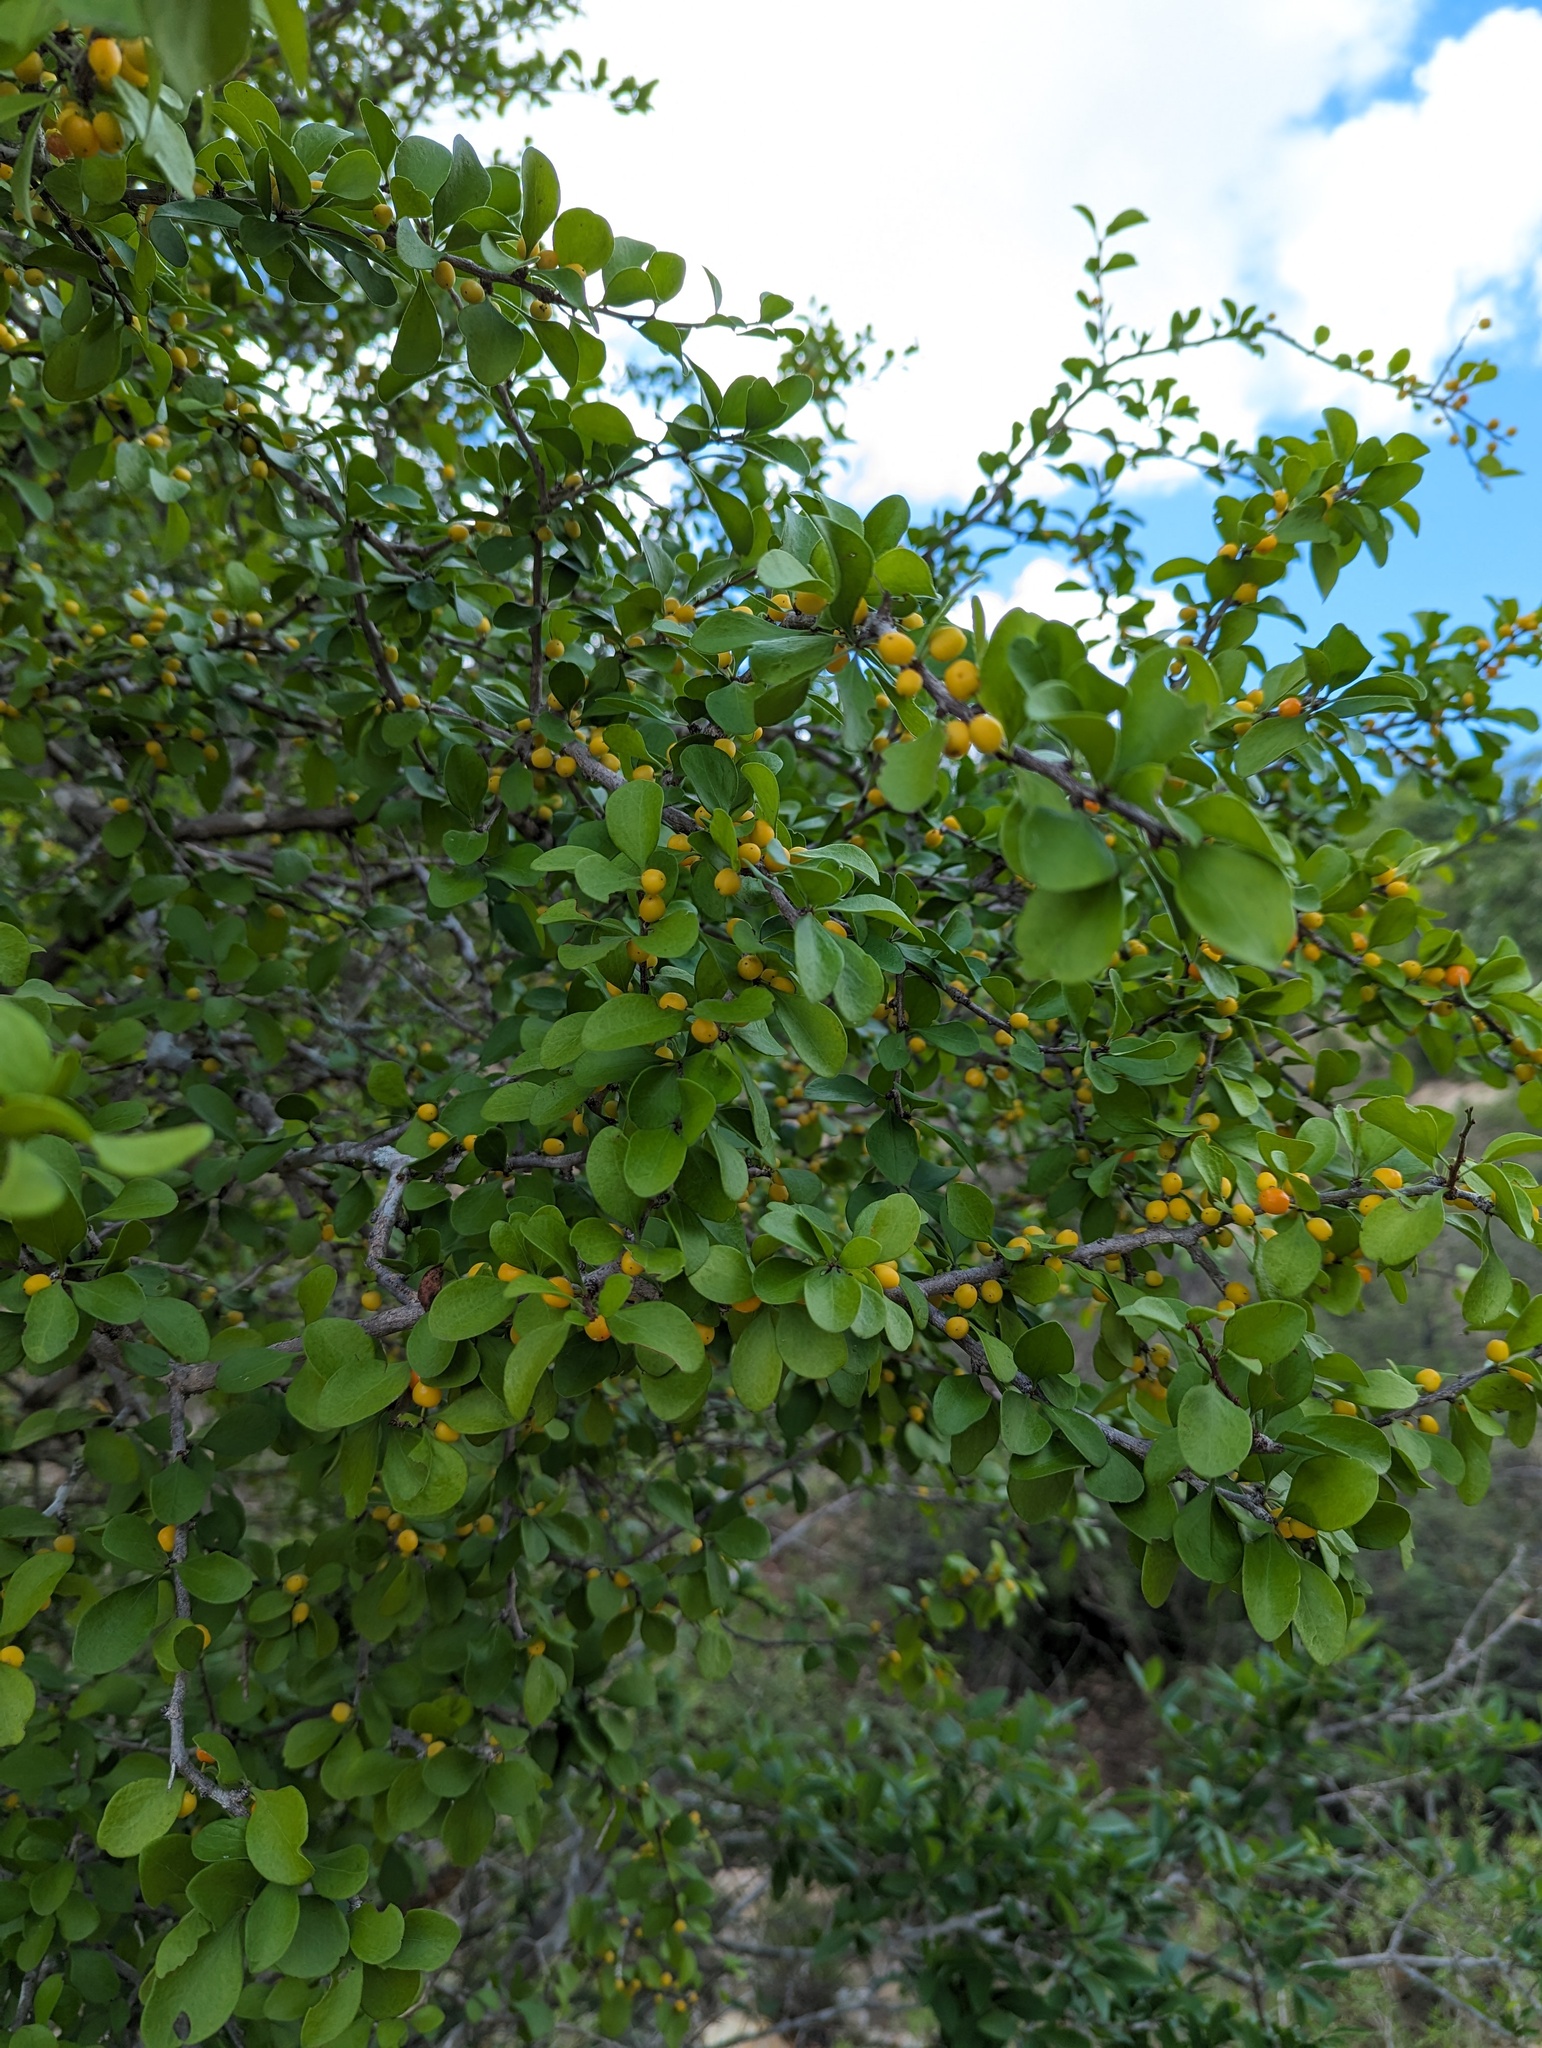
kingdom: Plantae
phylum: Tracheophyta
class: Magnoliopsida
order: Celastrales
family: Celastraceae
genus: Schaefferia
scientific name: Schaefferia pilosa
